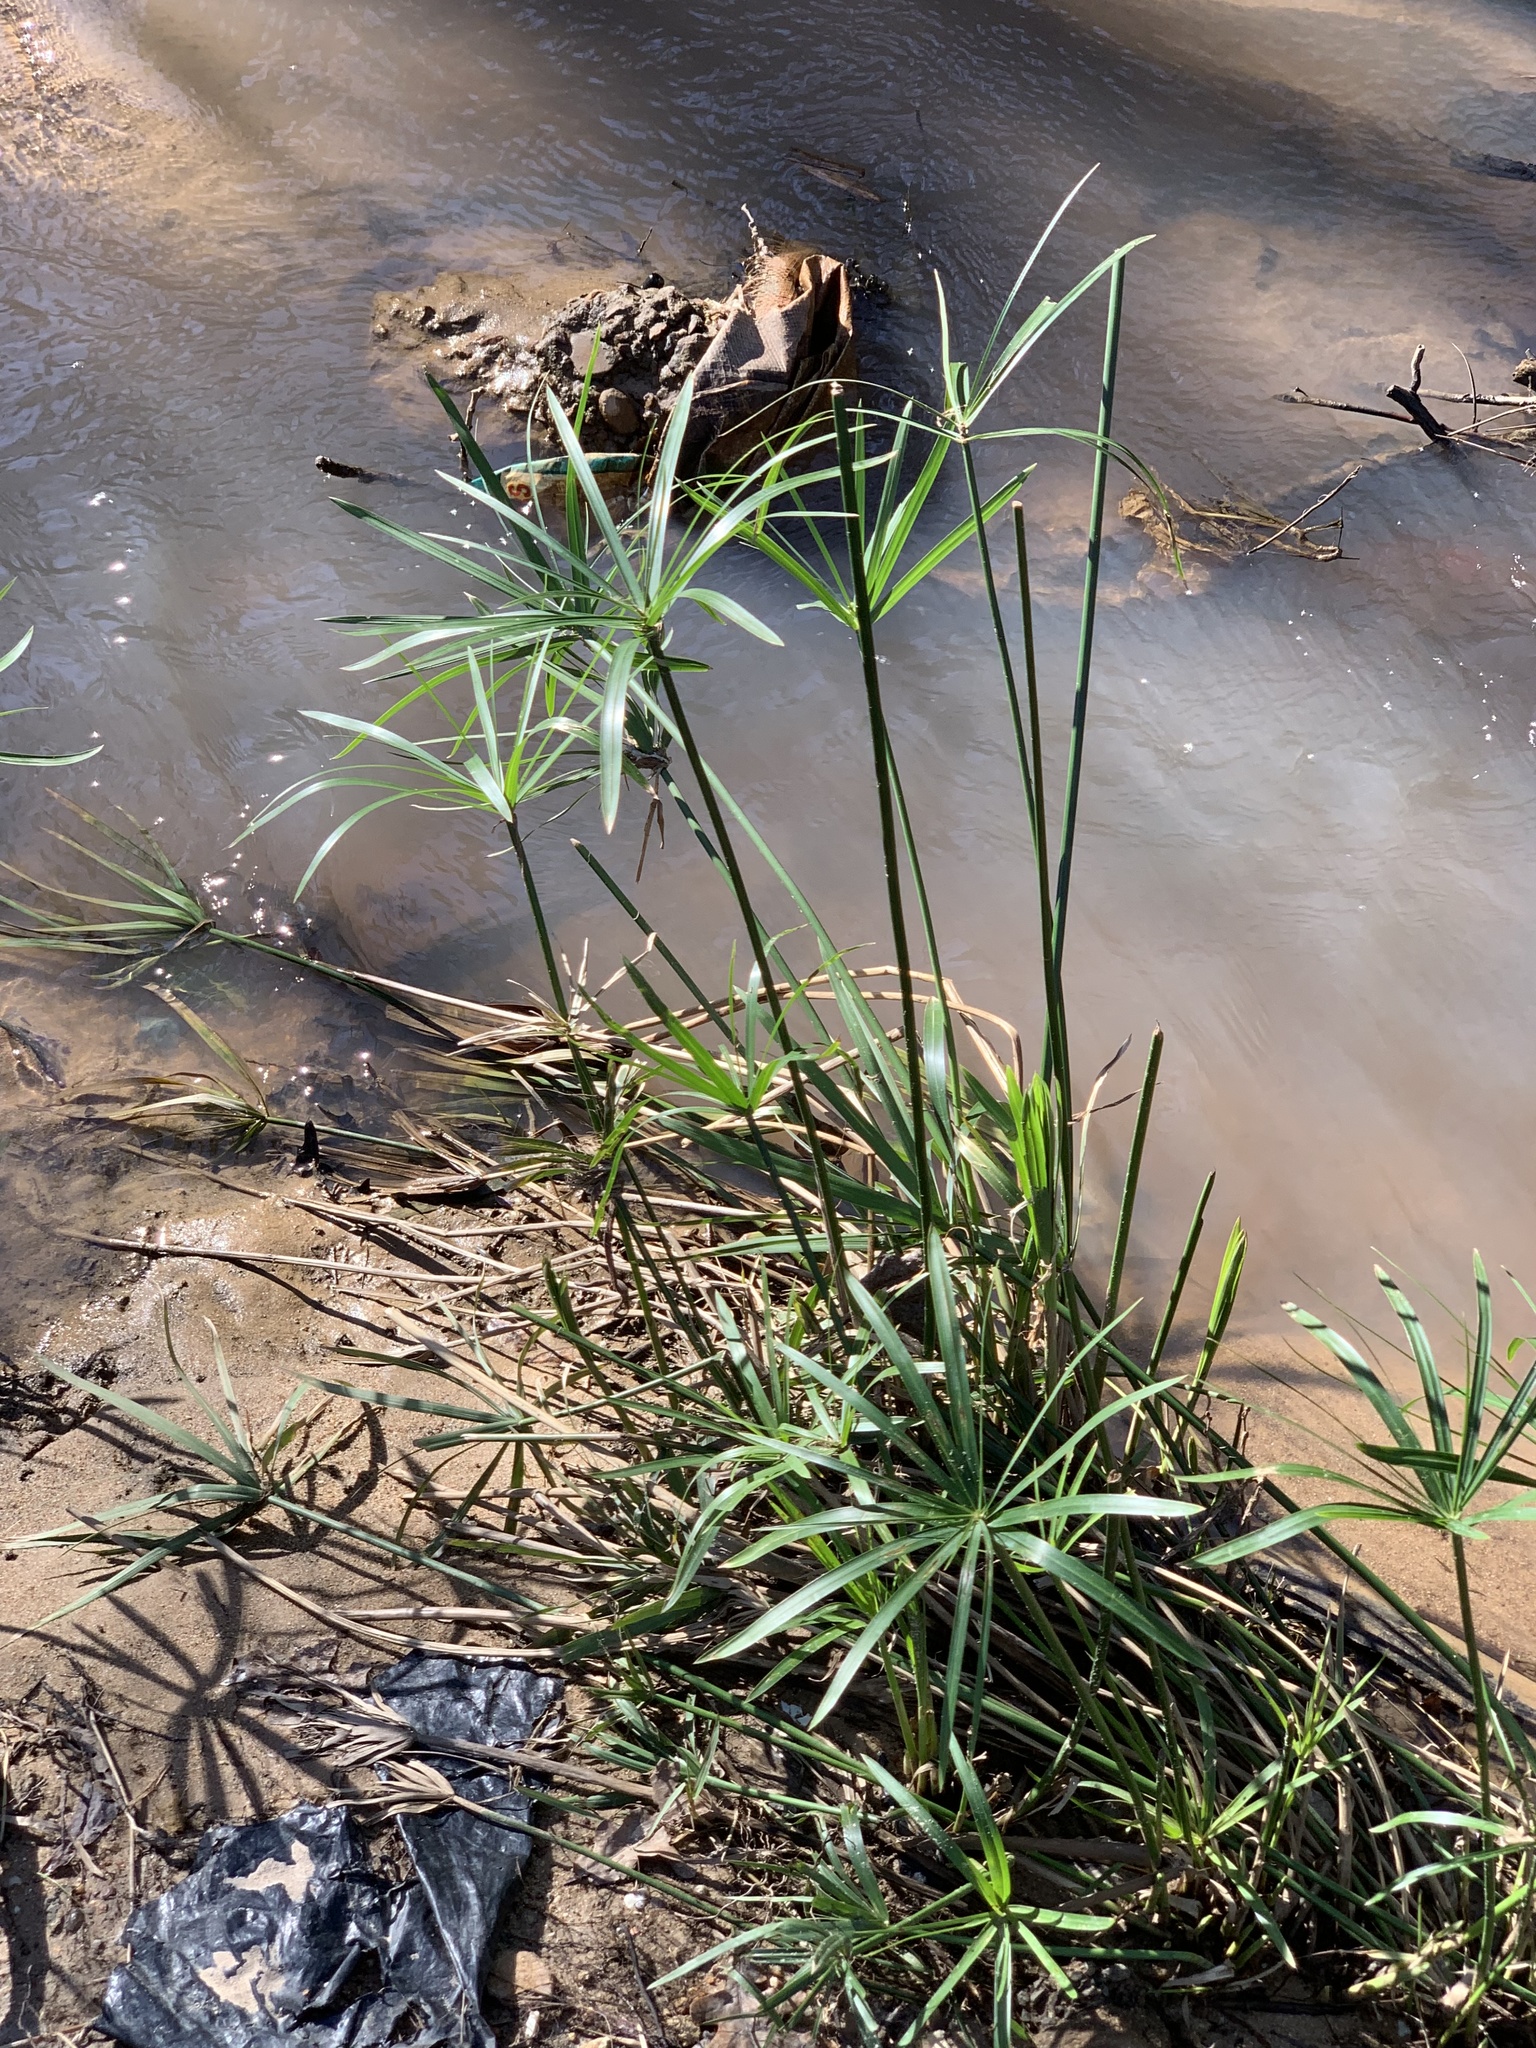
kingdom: Plantae
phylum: Tracheophyta
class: Liliopsida
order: Poales
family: Cyperaceae
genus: Cyperus
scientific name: Cyperus textilis
